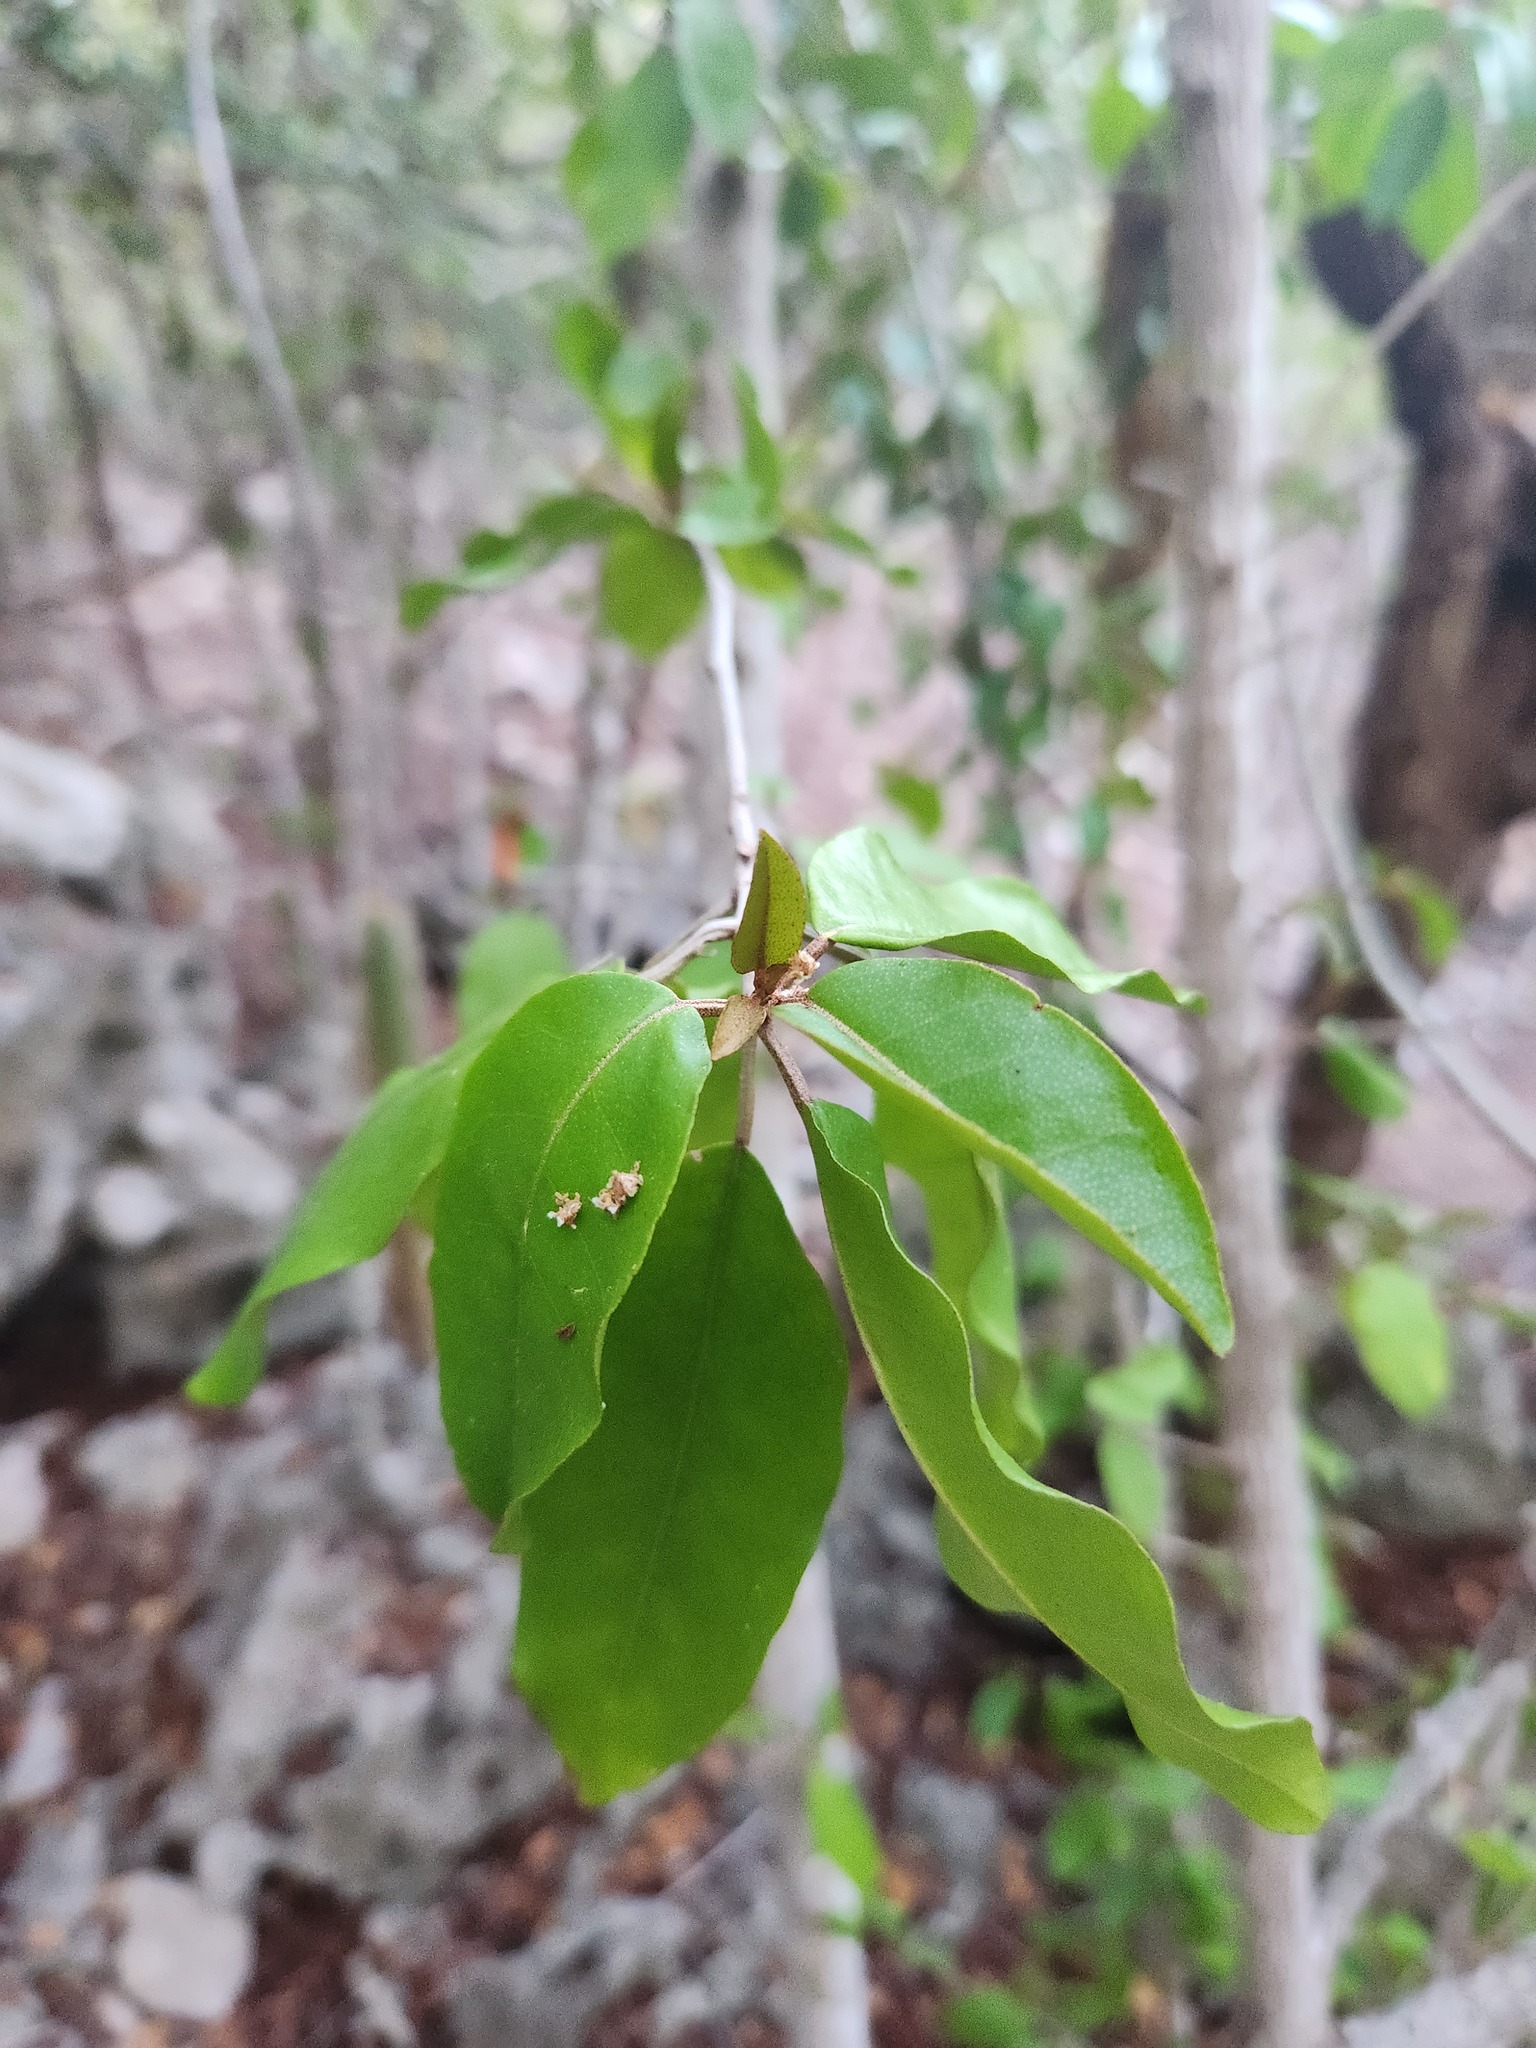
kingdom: Plantae
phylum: Tracheophyta
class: Magnoliopsida
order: Malpighiales
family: Euphorbiaceae
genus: Croton
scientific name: Croton nitens
